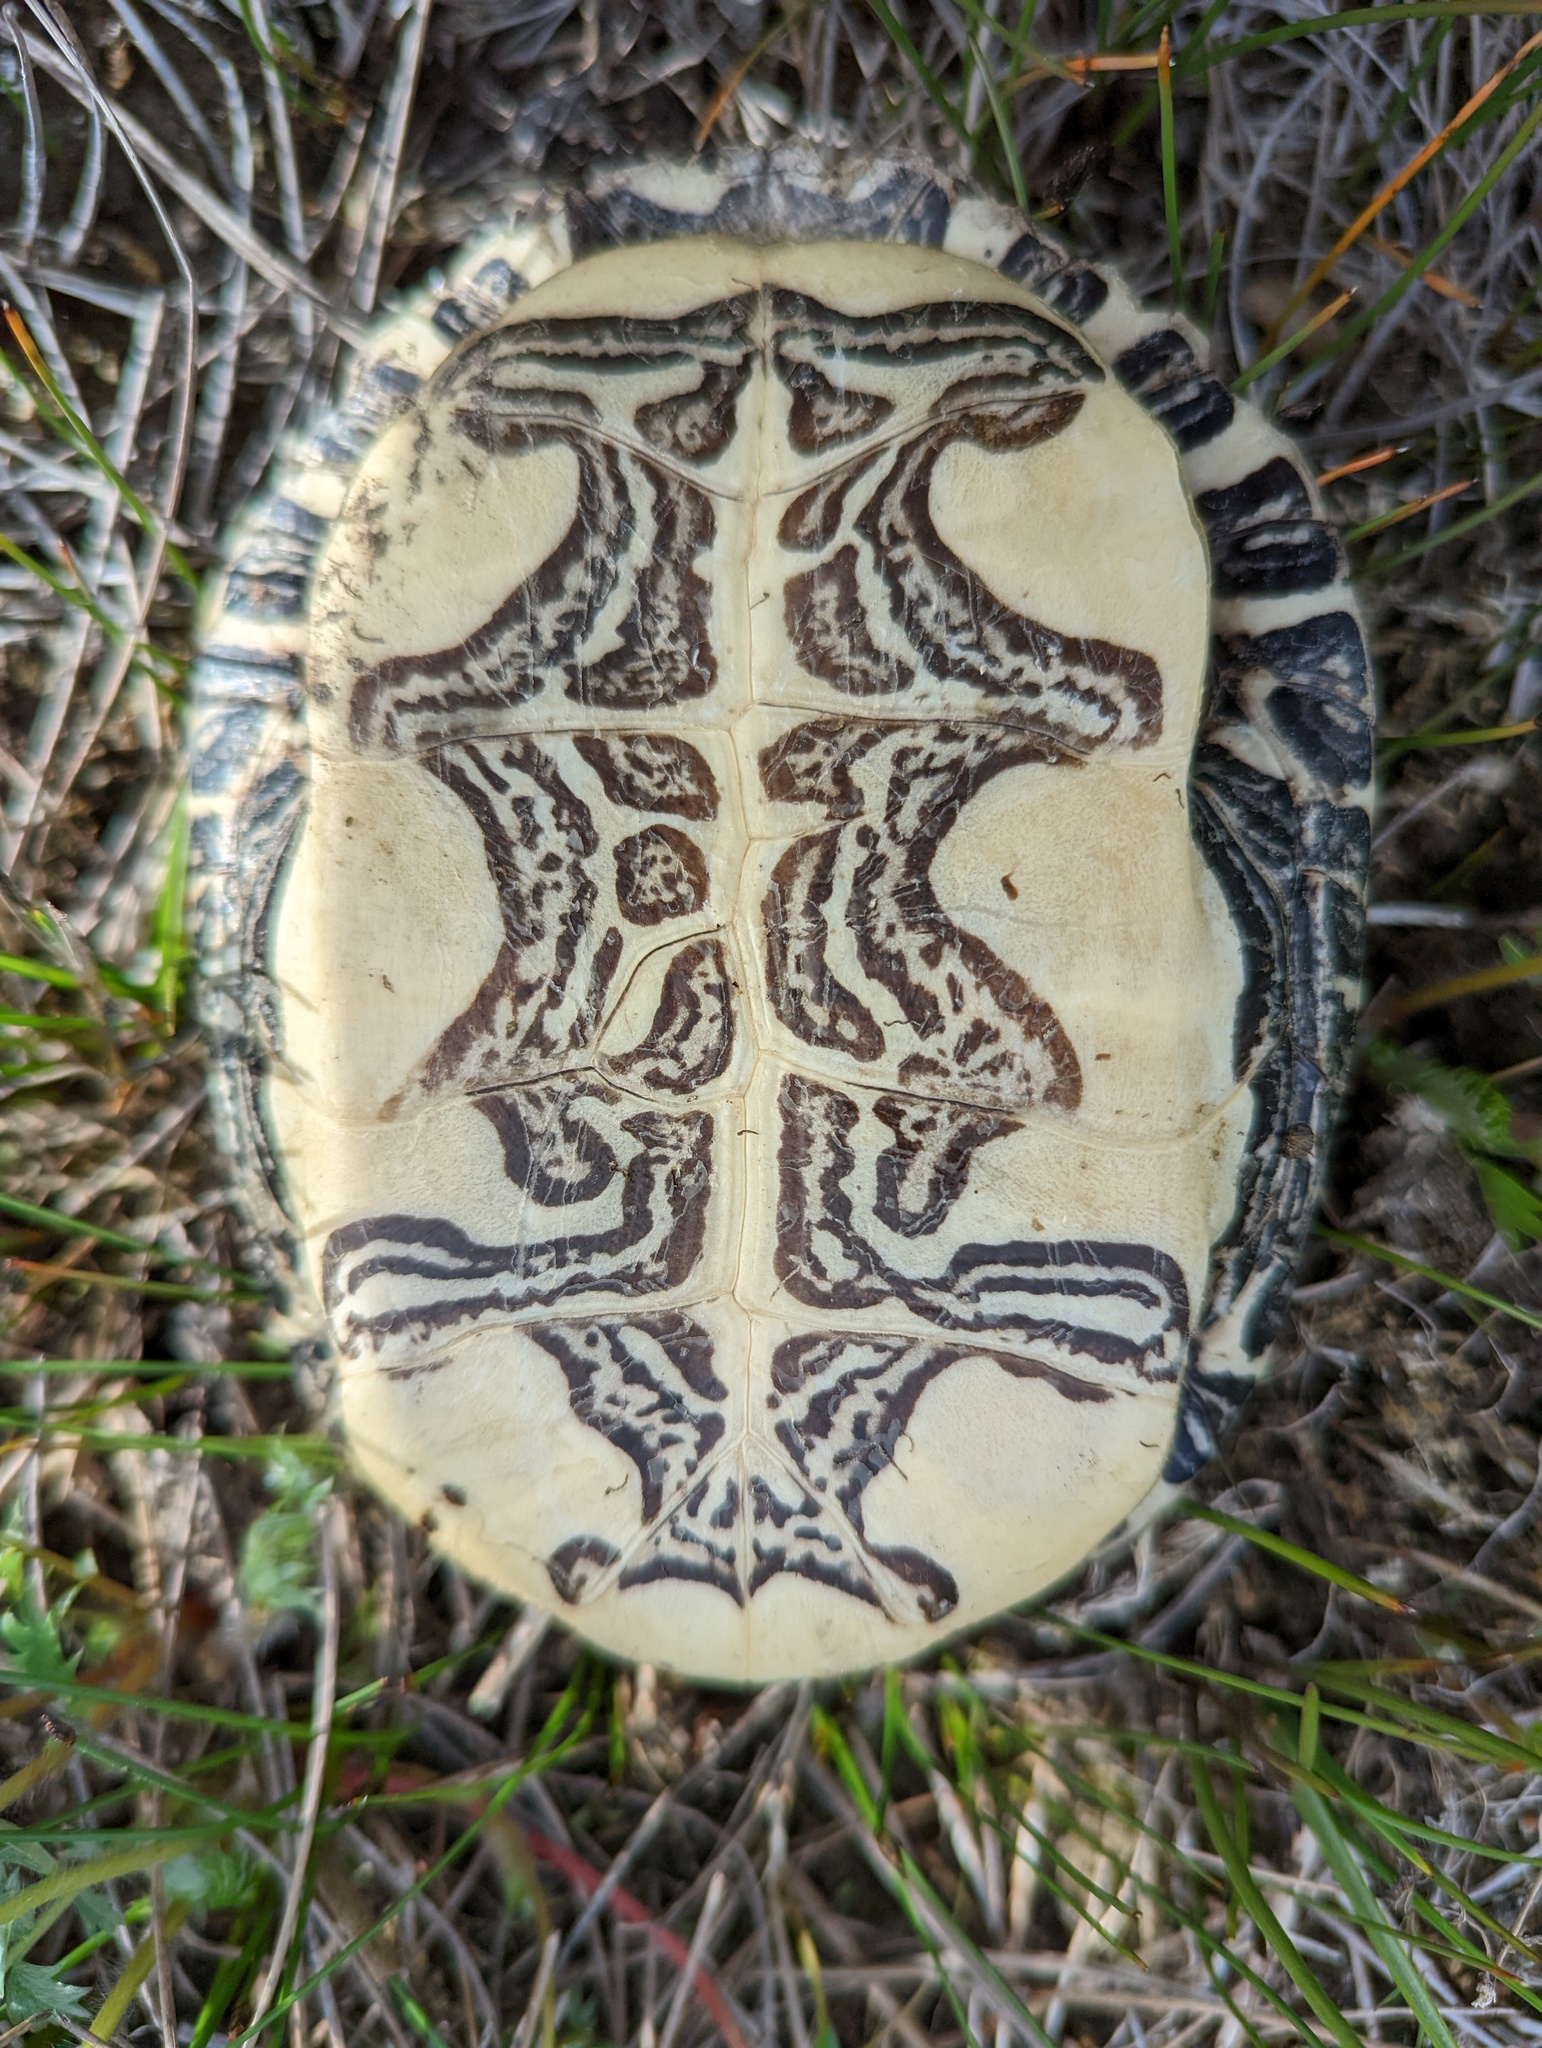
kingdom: Animalia
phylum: Chordata
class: Testudines
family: Emydidae
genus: Chrysemys
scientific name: Chrysemys picta
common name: Painted turtle
